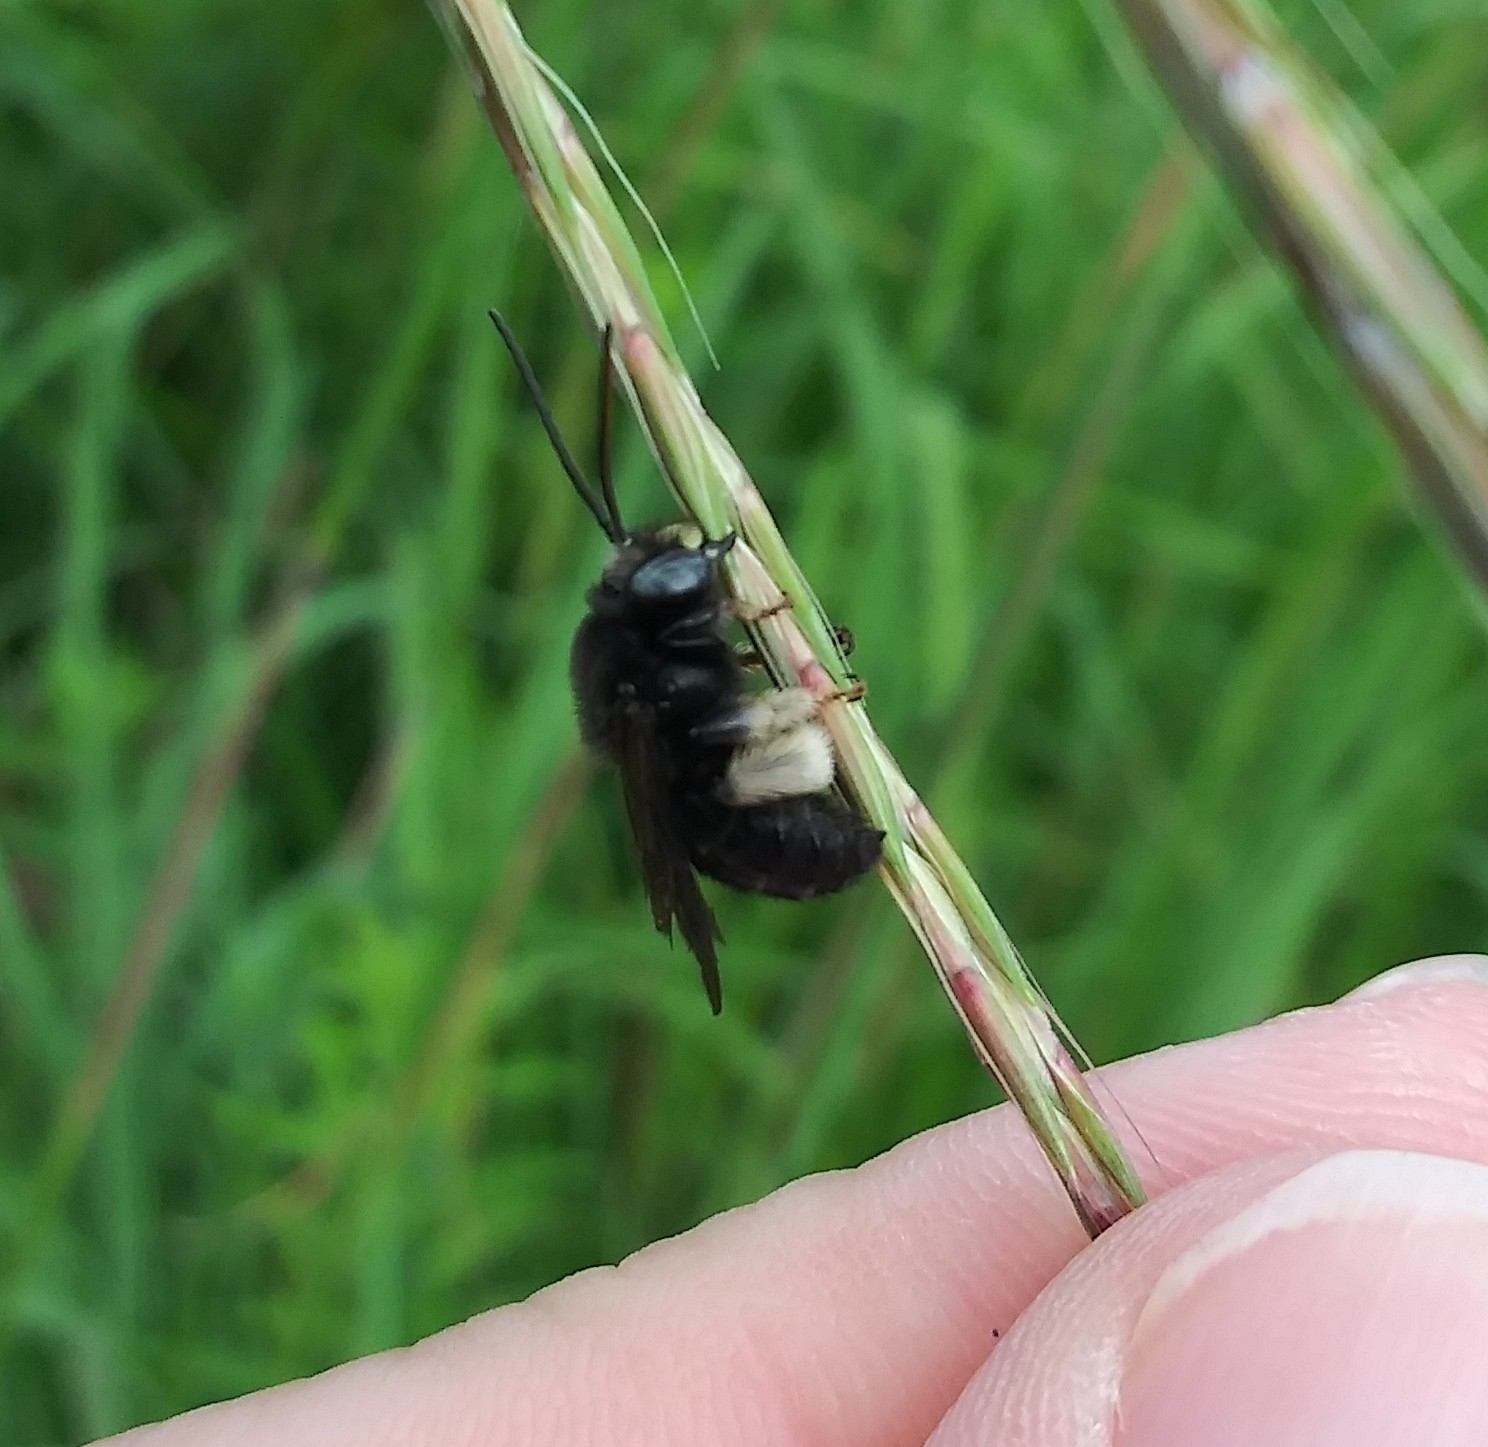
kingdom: Animalia
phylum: Arthropoda
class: Insecta
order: Hymenoptera
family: Apidae
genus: Melissodes
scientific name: Melissodes bimaculatus
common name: Two-spotted long-horned bee
